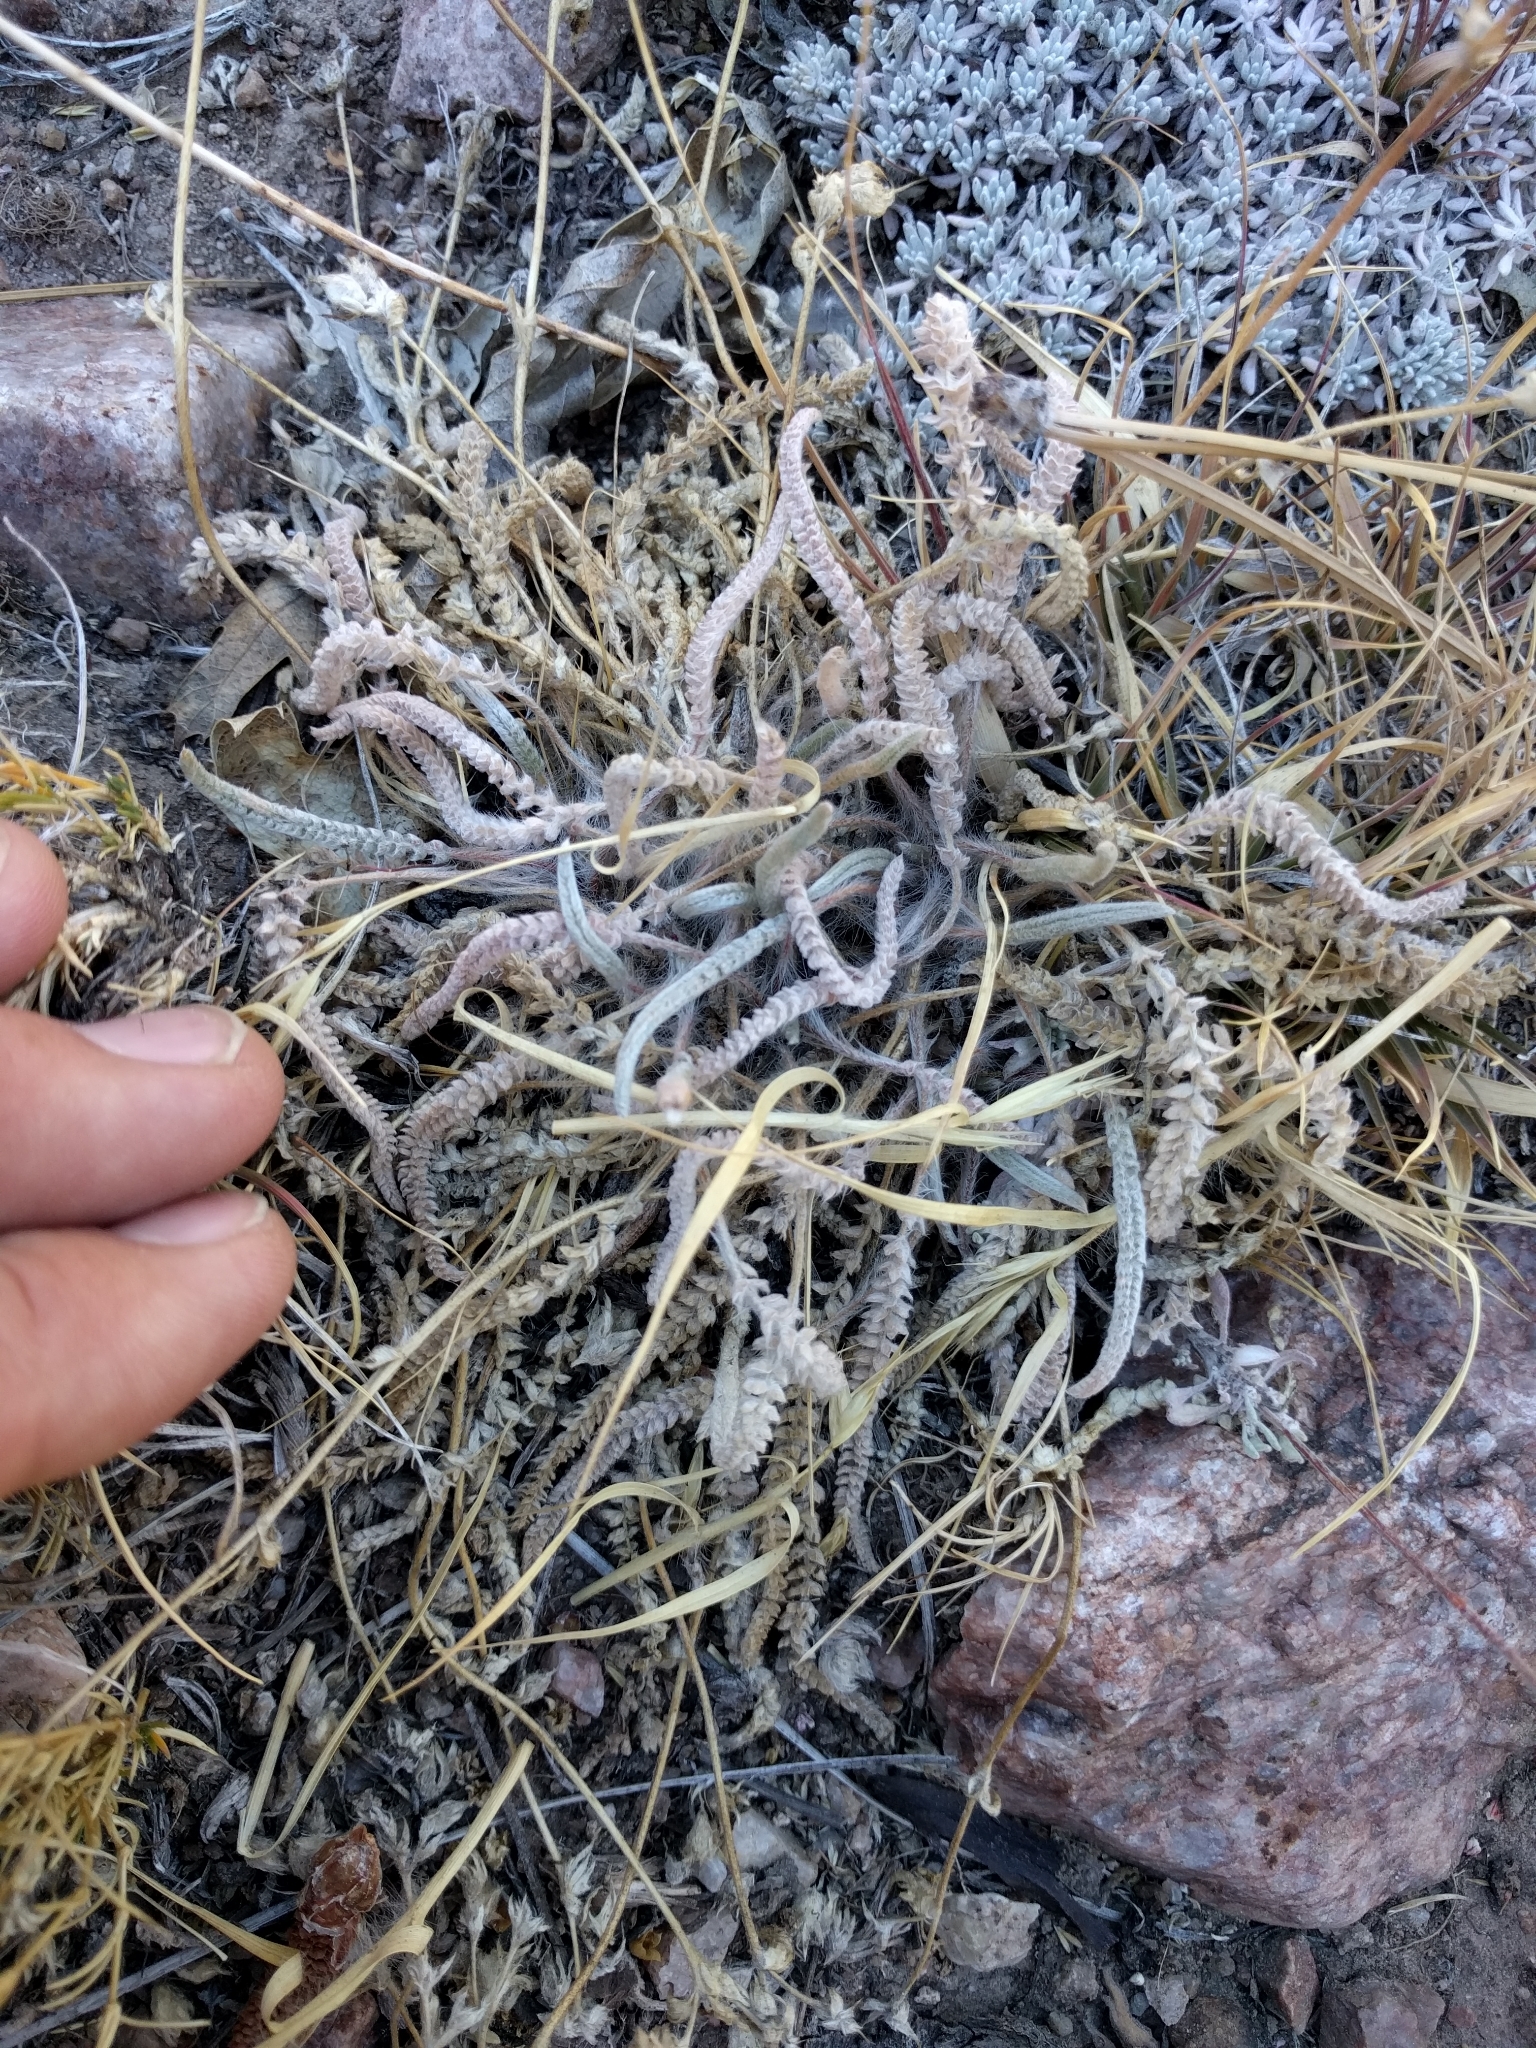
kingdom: Plantae
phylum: Tracheophyta
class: Magnoliopsida
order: Rosales
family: Rosaceae
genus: Potentilla
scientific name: Potentilla argyrocoma
